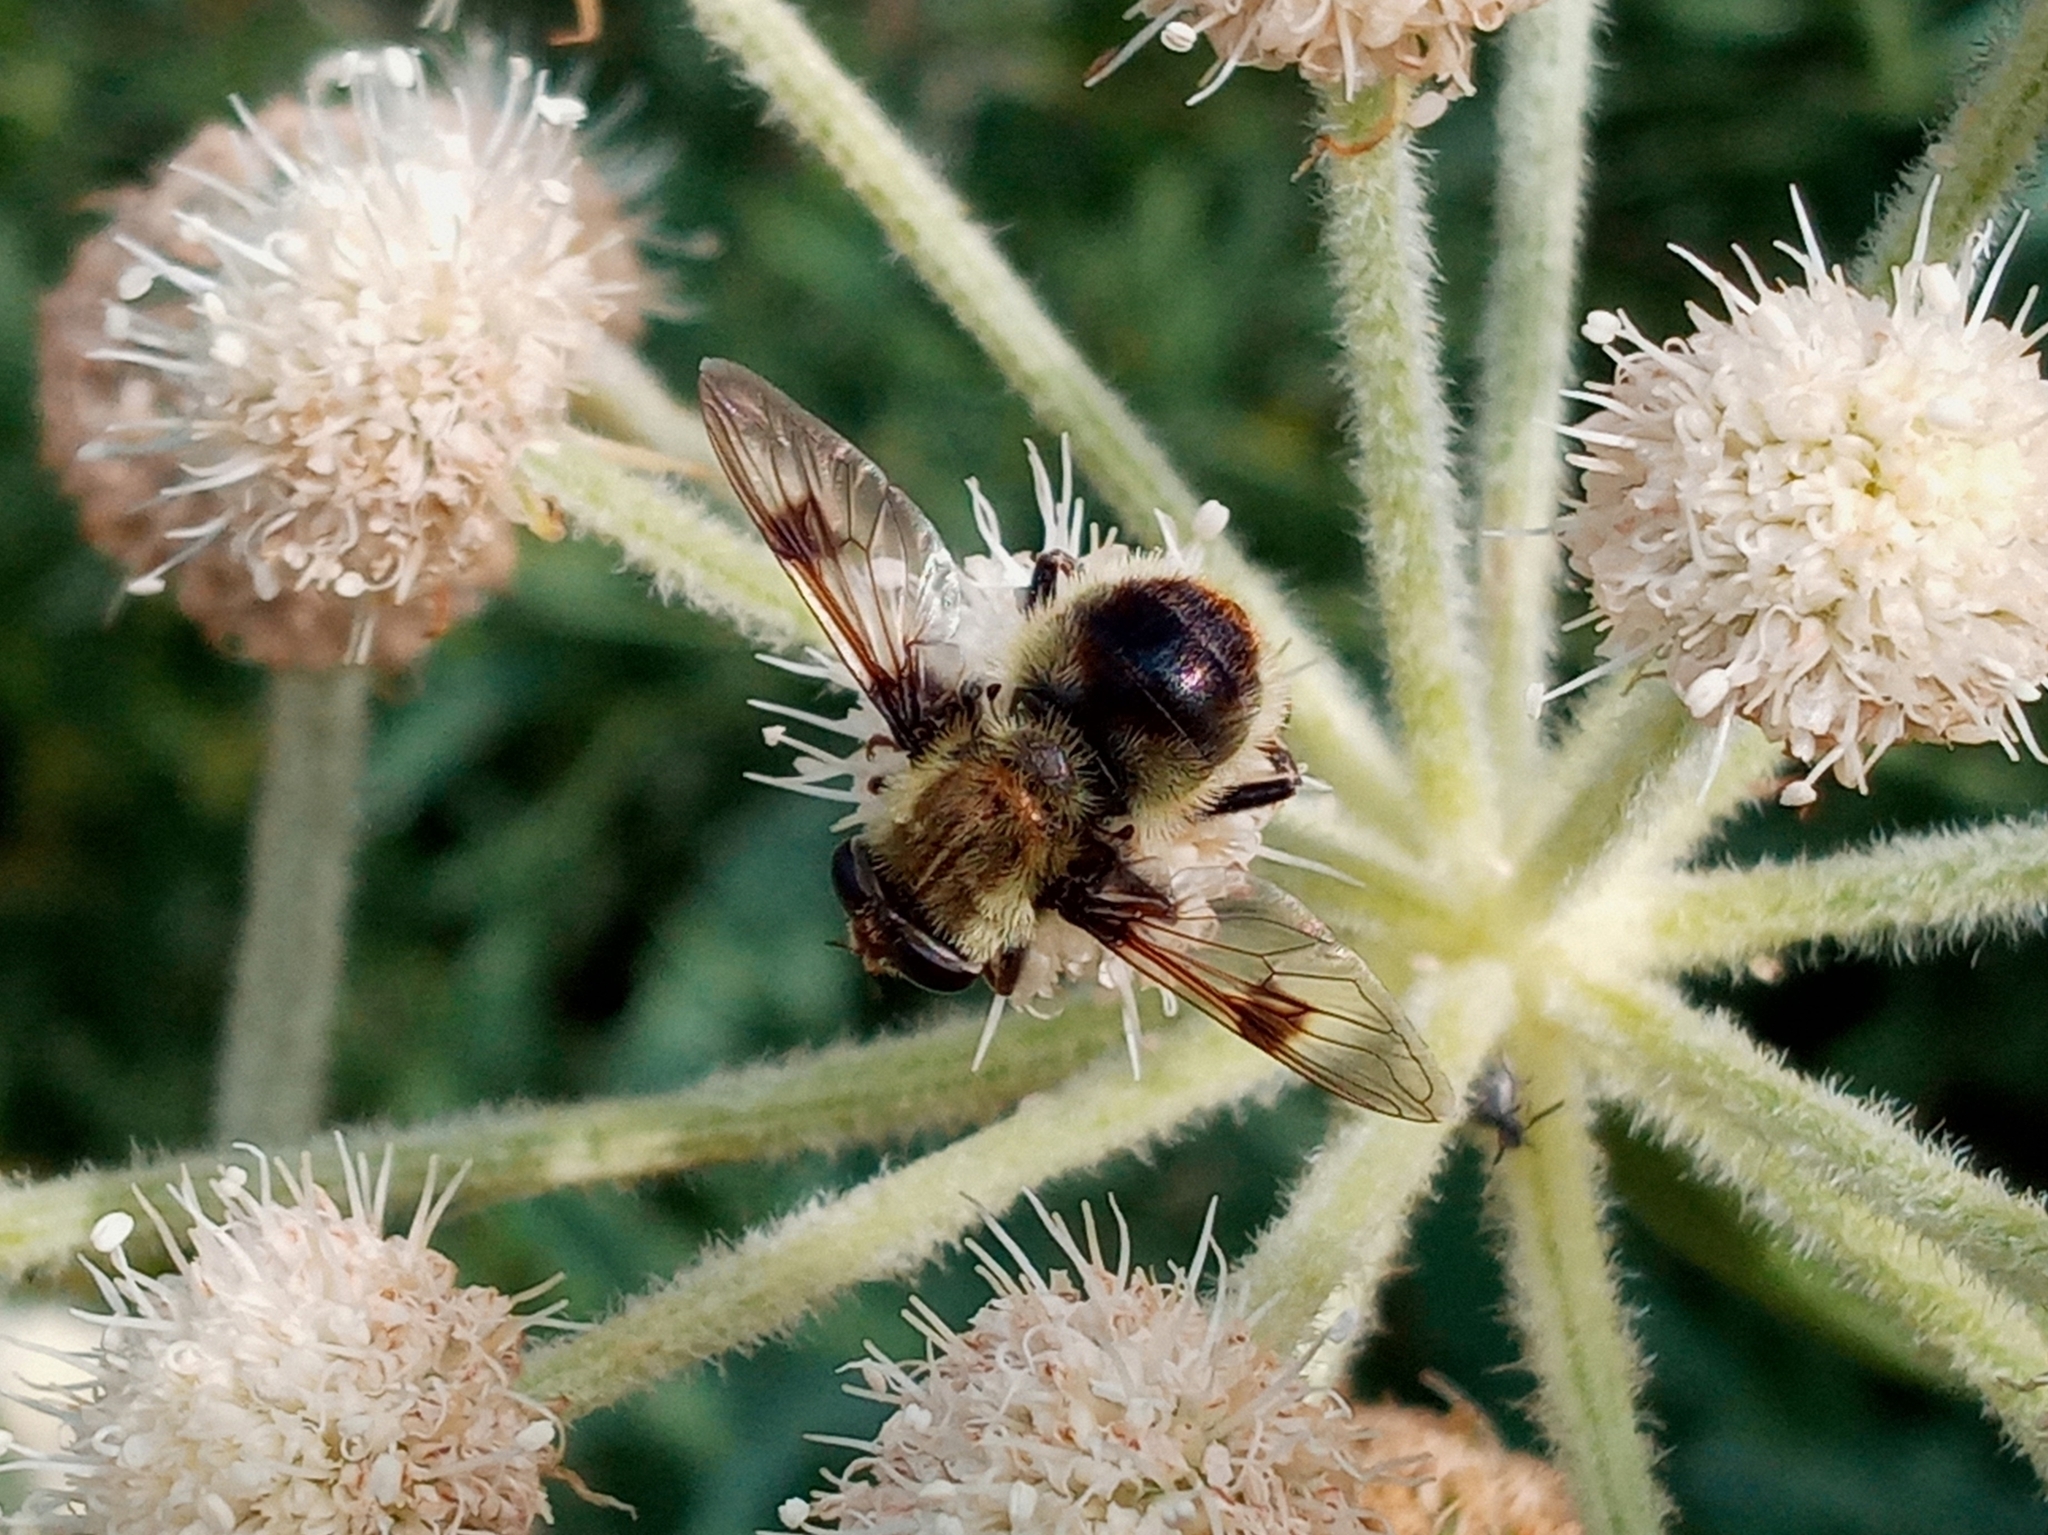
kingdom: Animalia
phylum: Arthropoda
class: Insecta
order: Diptera
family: Syrphidae
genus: Sericomyia
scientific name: Sericomyia flagrans
